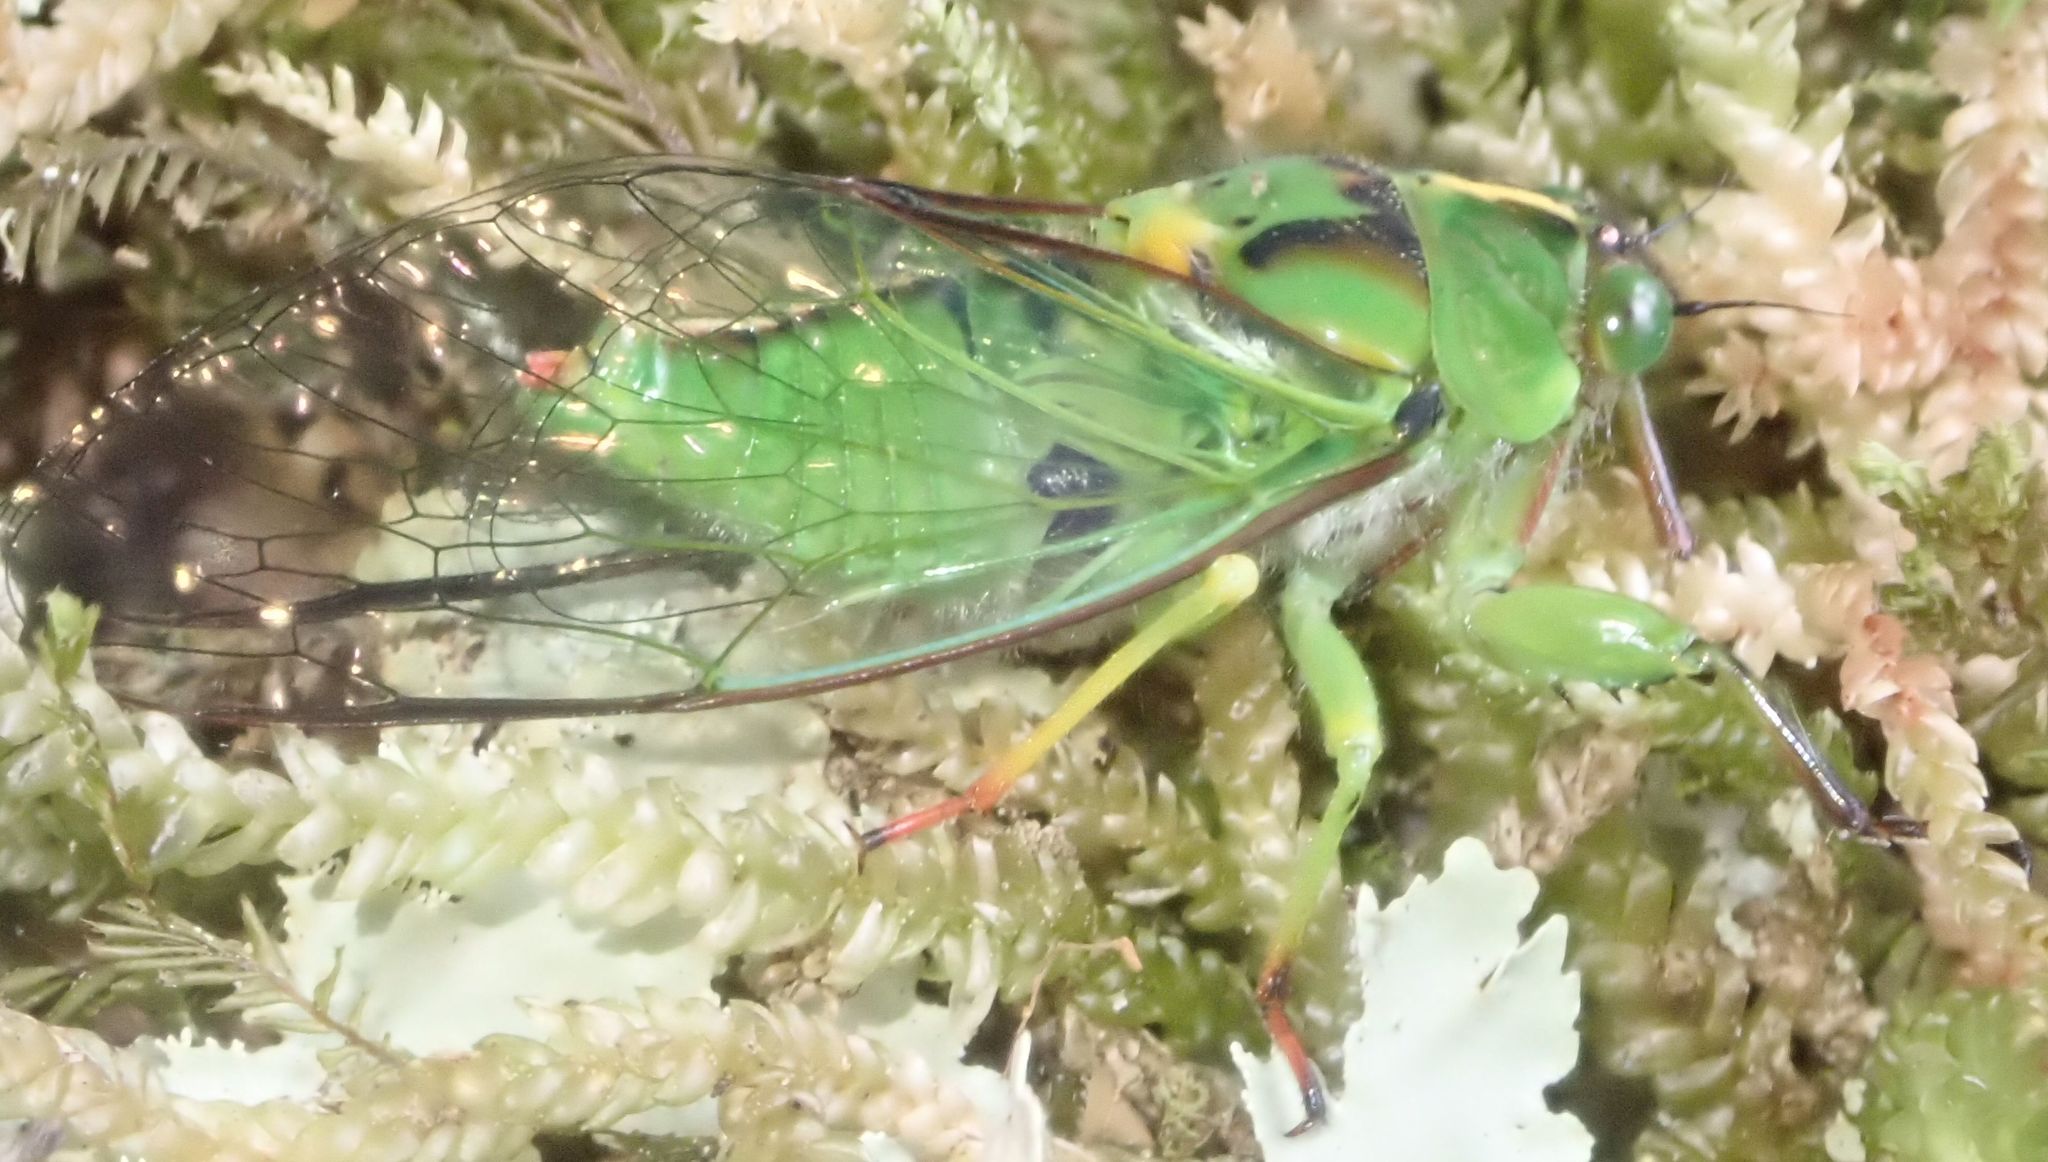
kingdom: Animalia
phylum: Arthropoda
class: Insecta
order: Hemiptera
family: Cicadidae
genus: Kikihia
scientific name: Kikihia subalpina
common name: Chathams cicada
